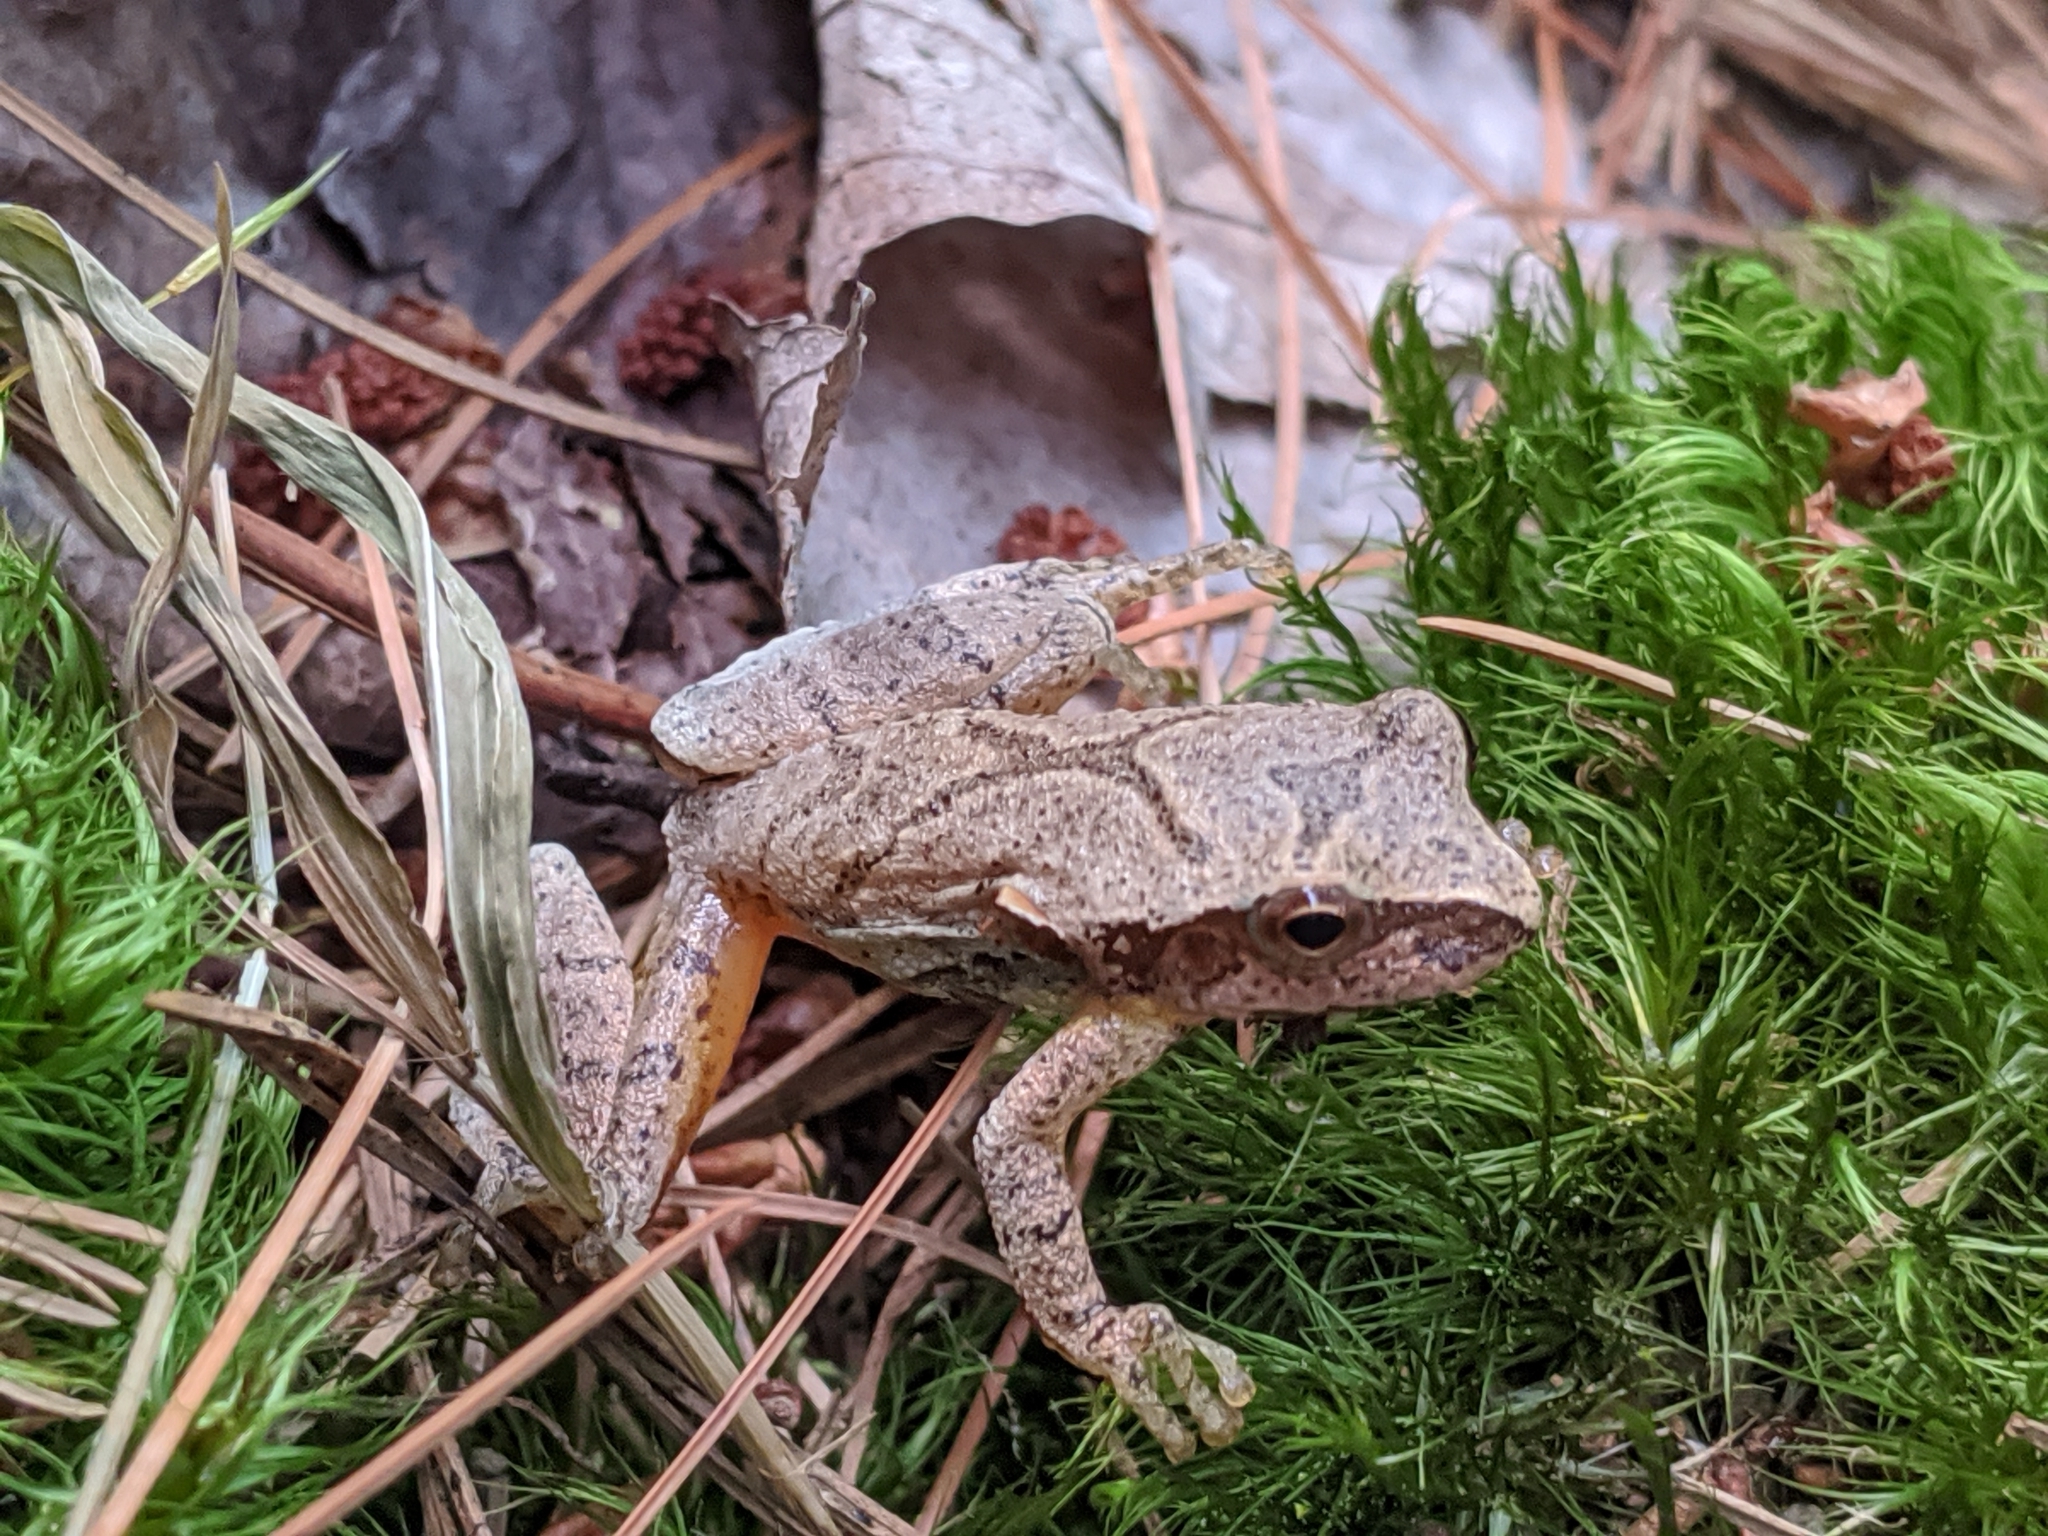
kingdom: Animalia
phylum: Chordata
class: Amphibia
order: Anura
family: Hylidae
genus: Pseudacris
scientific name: Pseudacris crucifer
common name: Spring peeper
